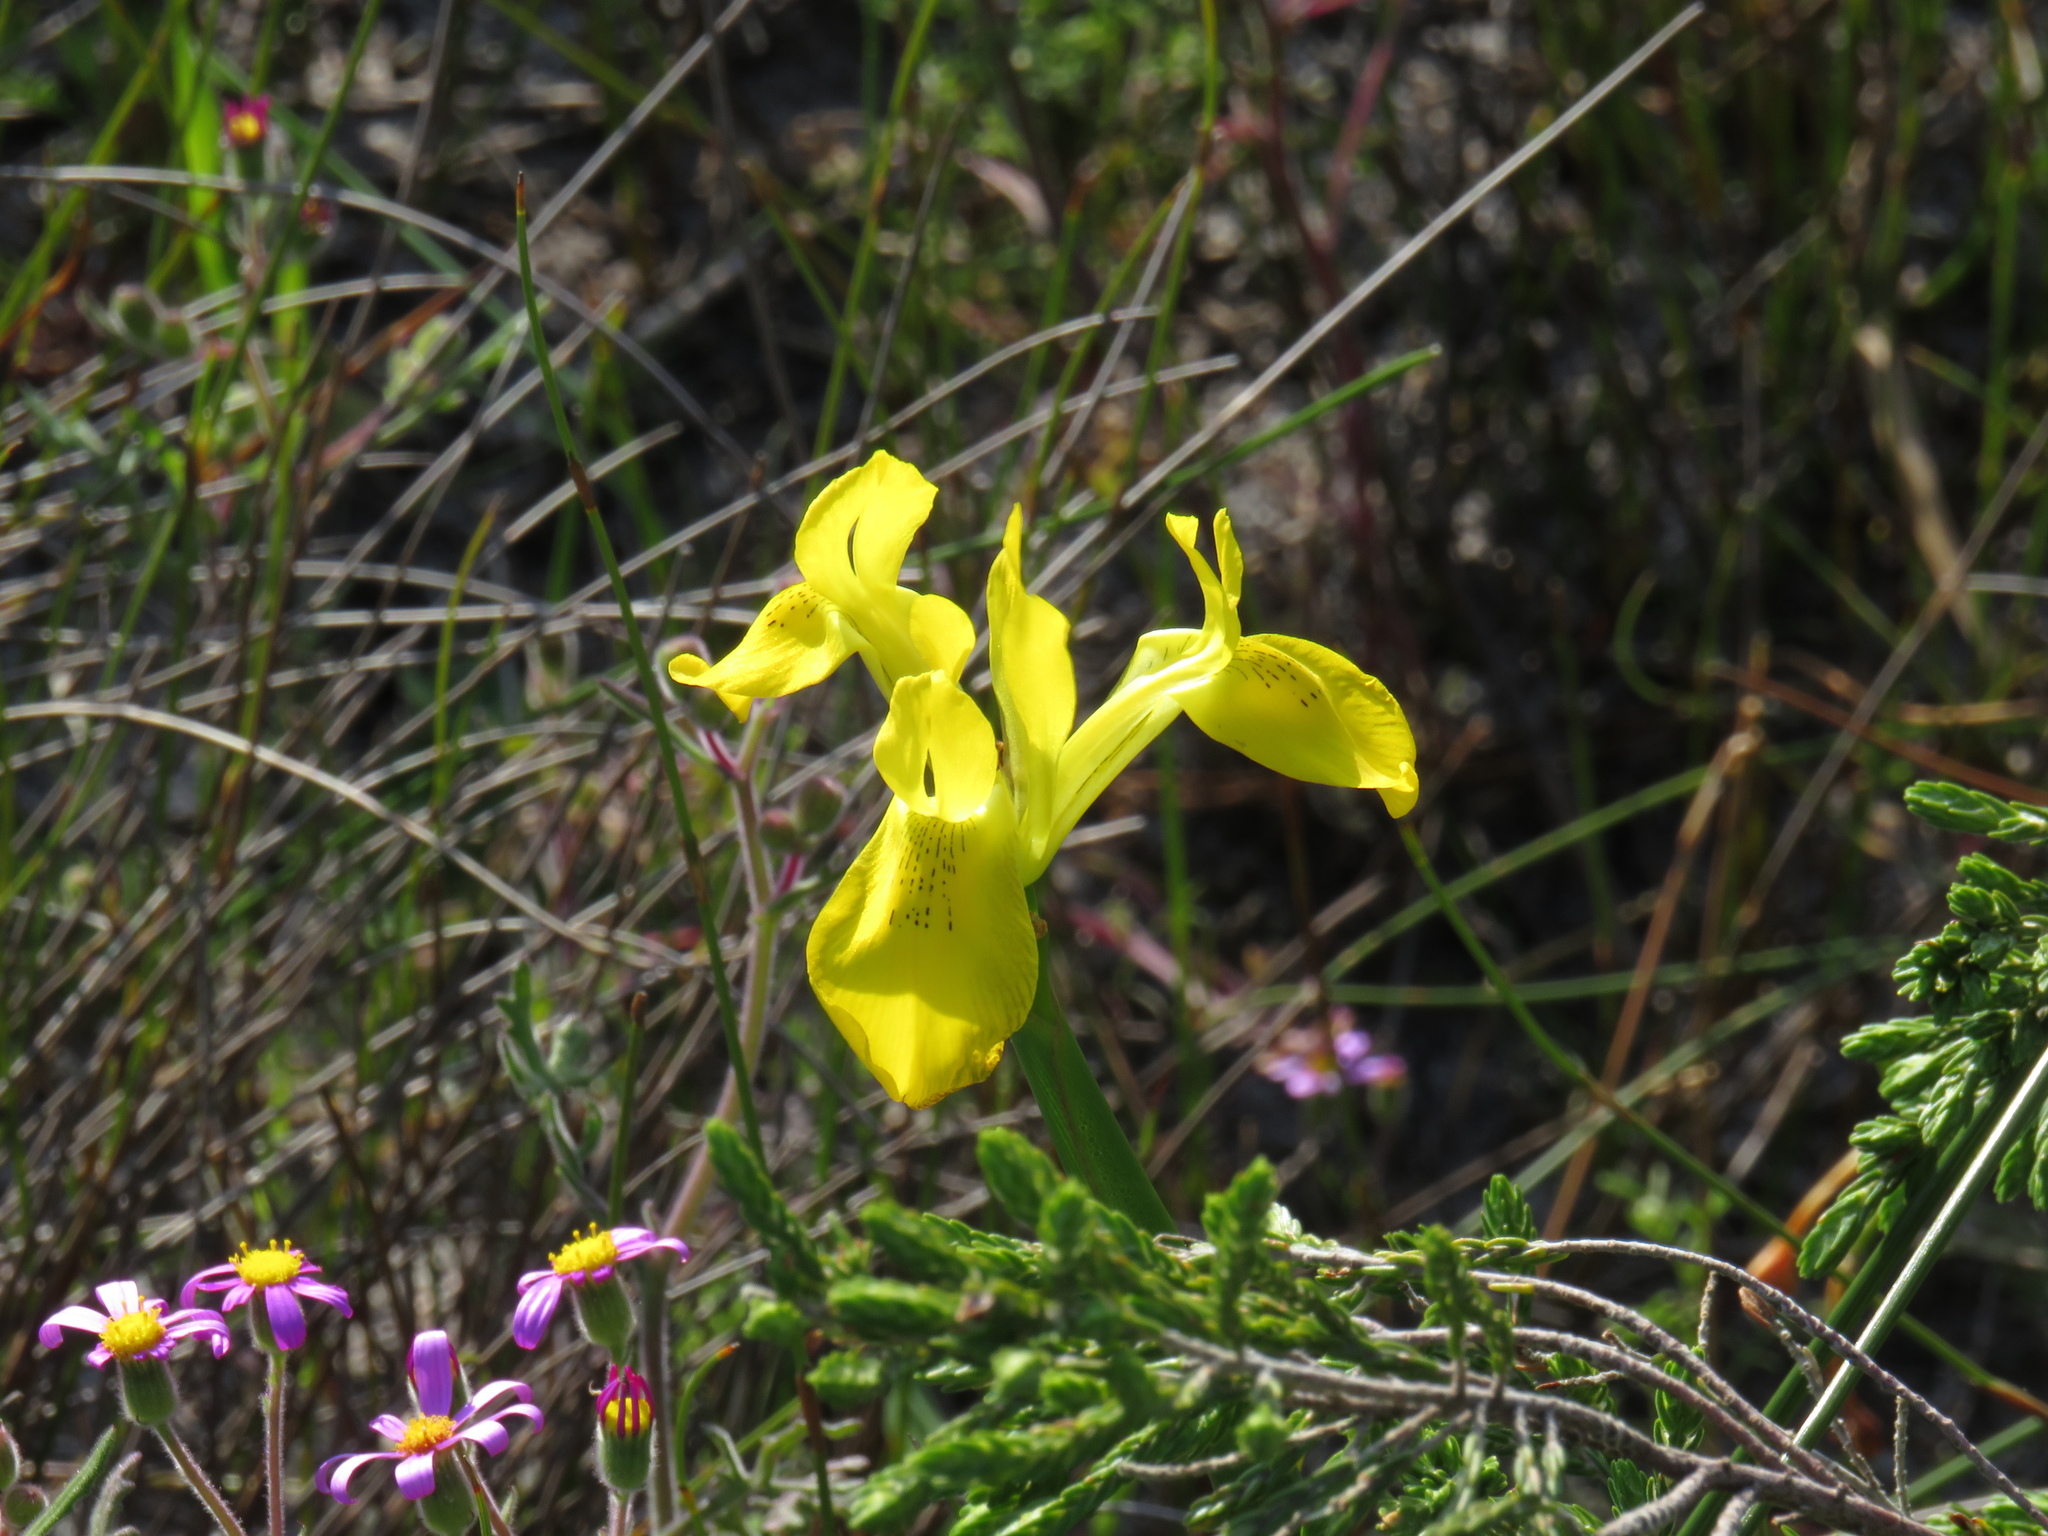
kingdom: Plantae
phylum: Tracheophyta
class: Liliopsida
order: Asparagales
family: Iridaceae
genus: Moraea
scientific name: Moraea neglecta
